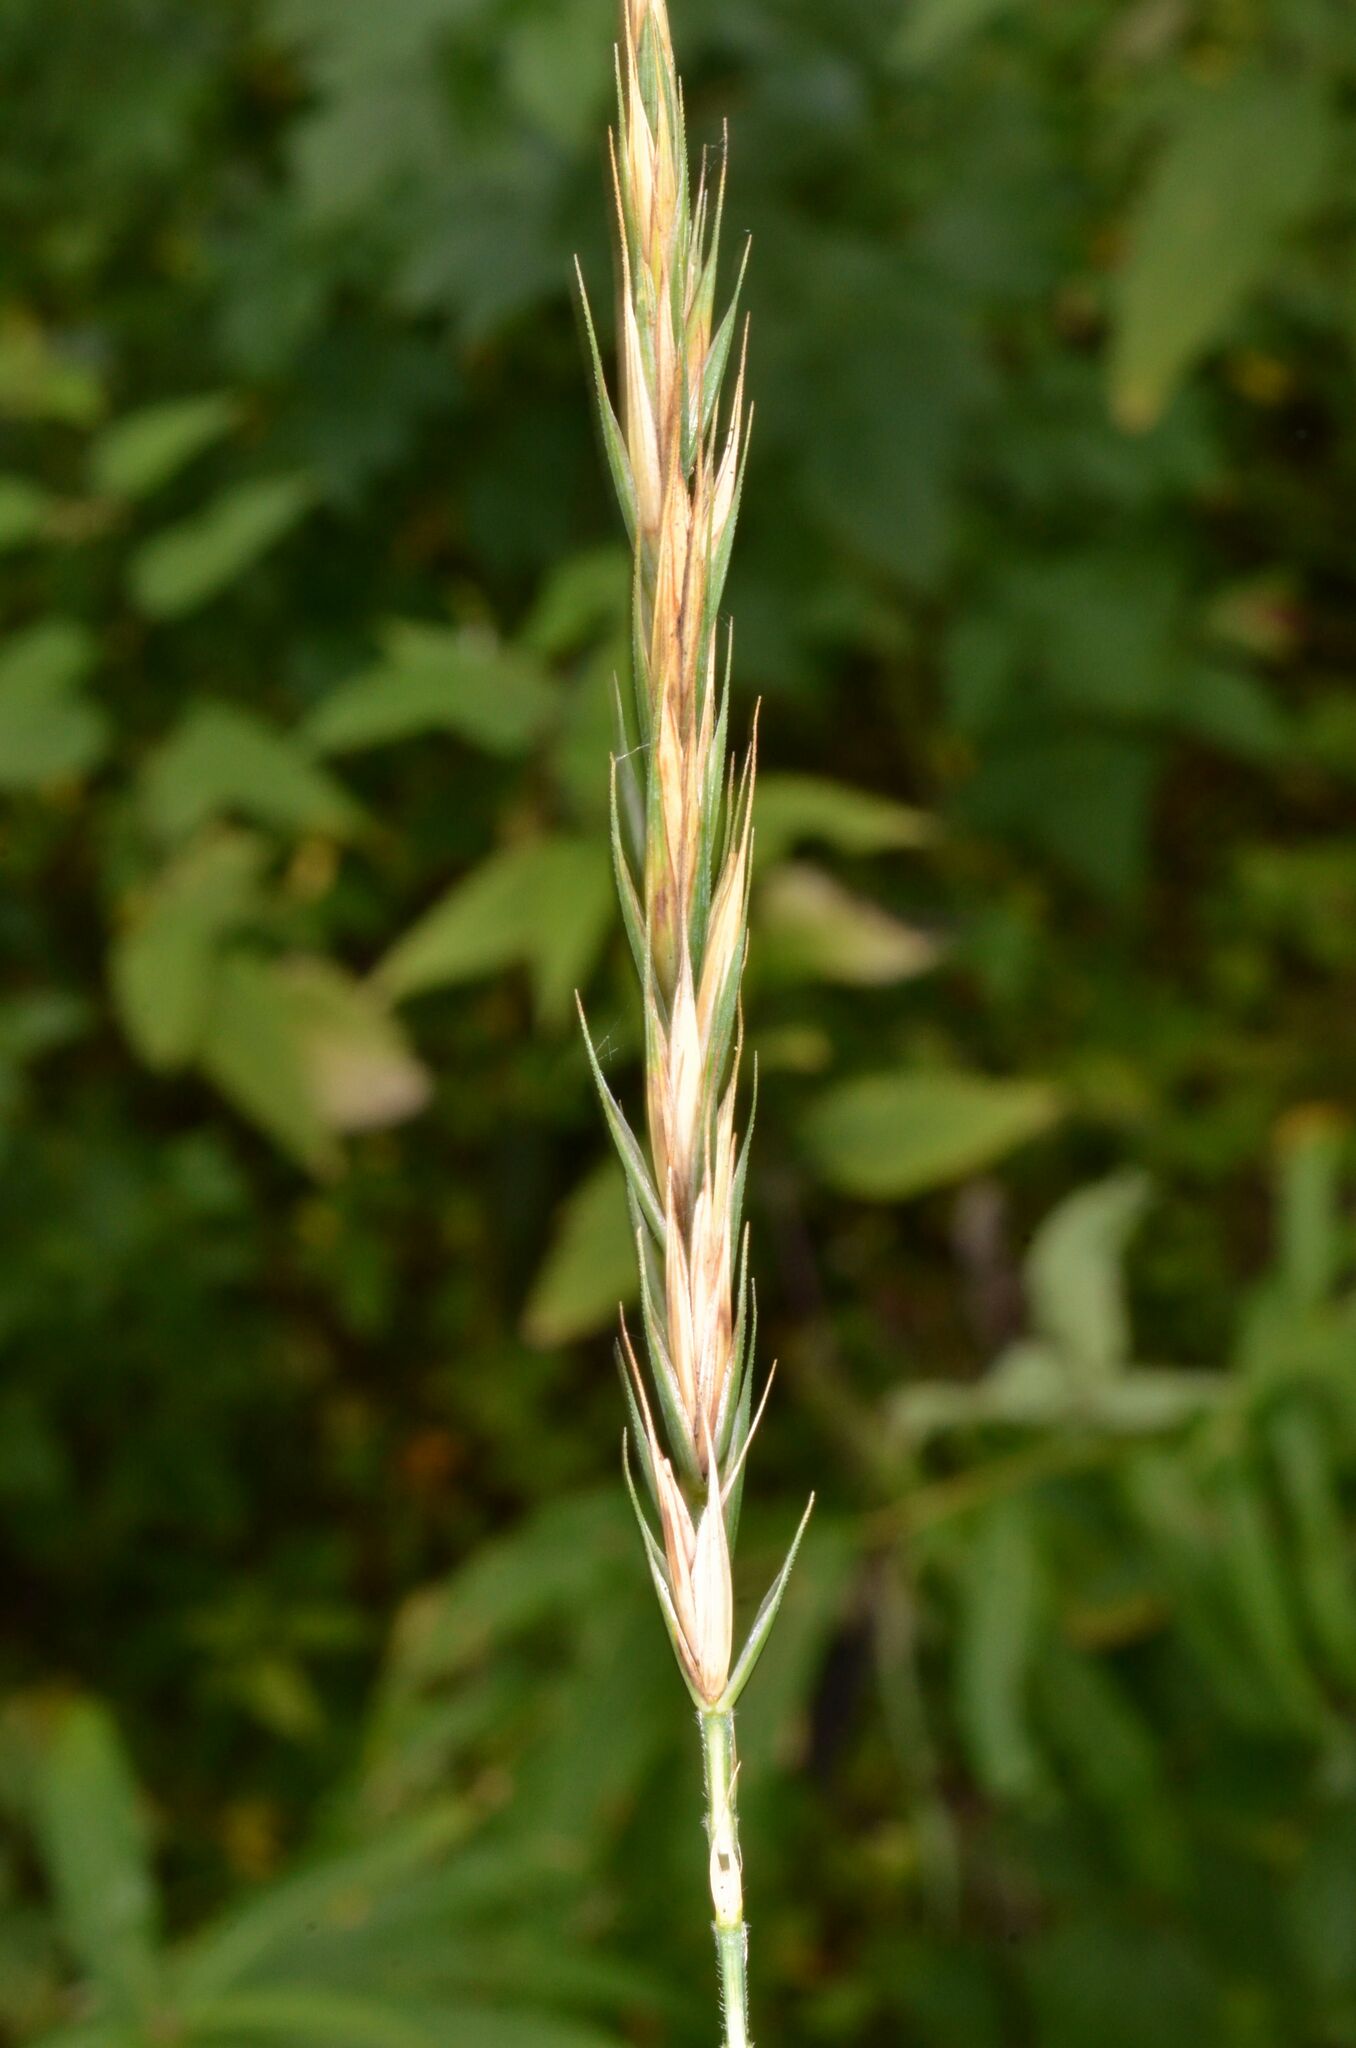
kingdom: Plantae
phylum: Tracheophyta
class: Liliopsida
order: Poales
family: Poaceae
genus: Elymus
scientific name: Elymus repens
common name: Quackgrass
